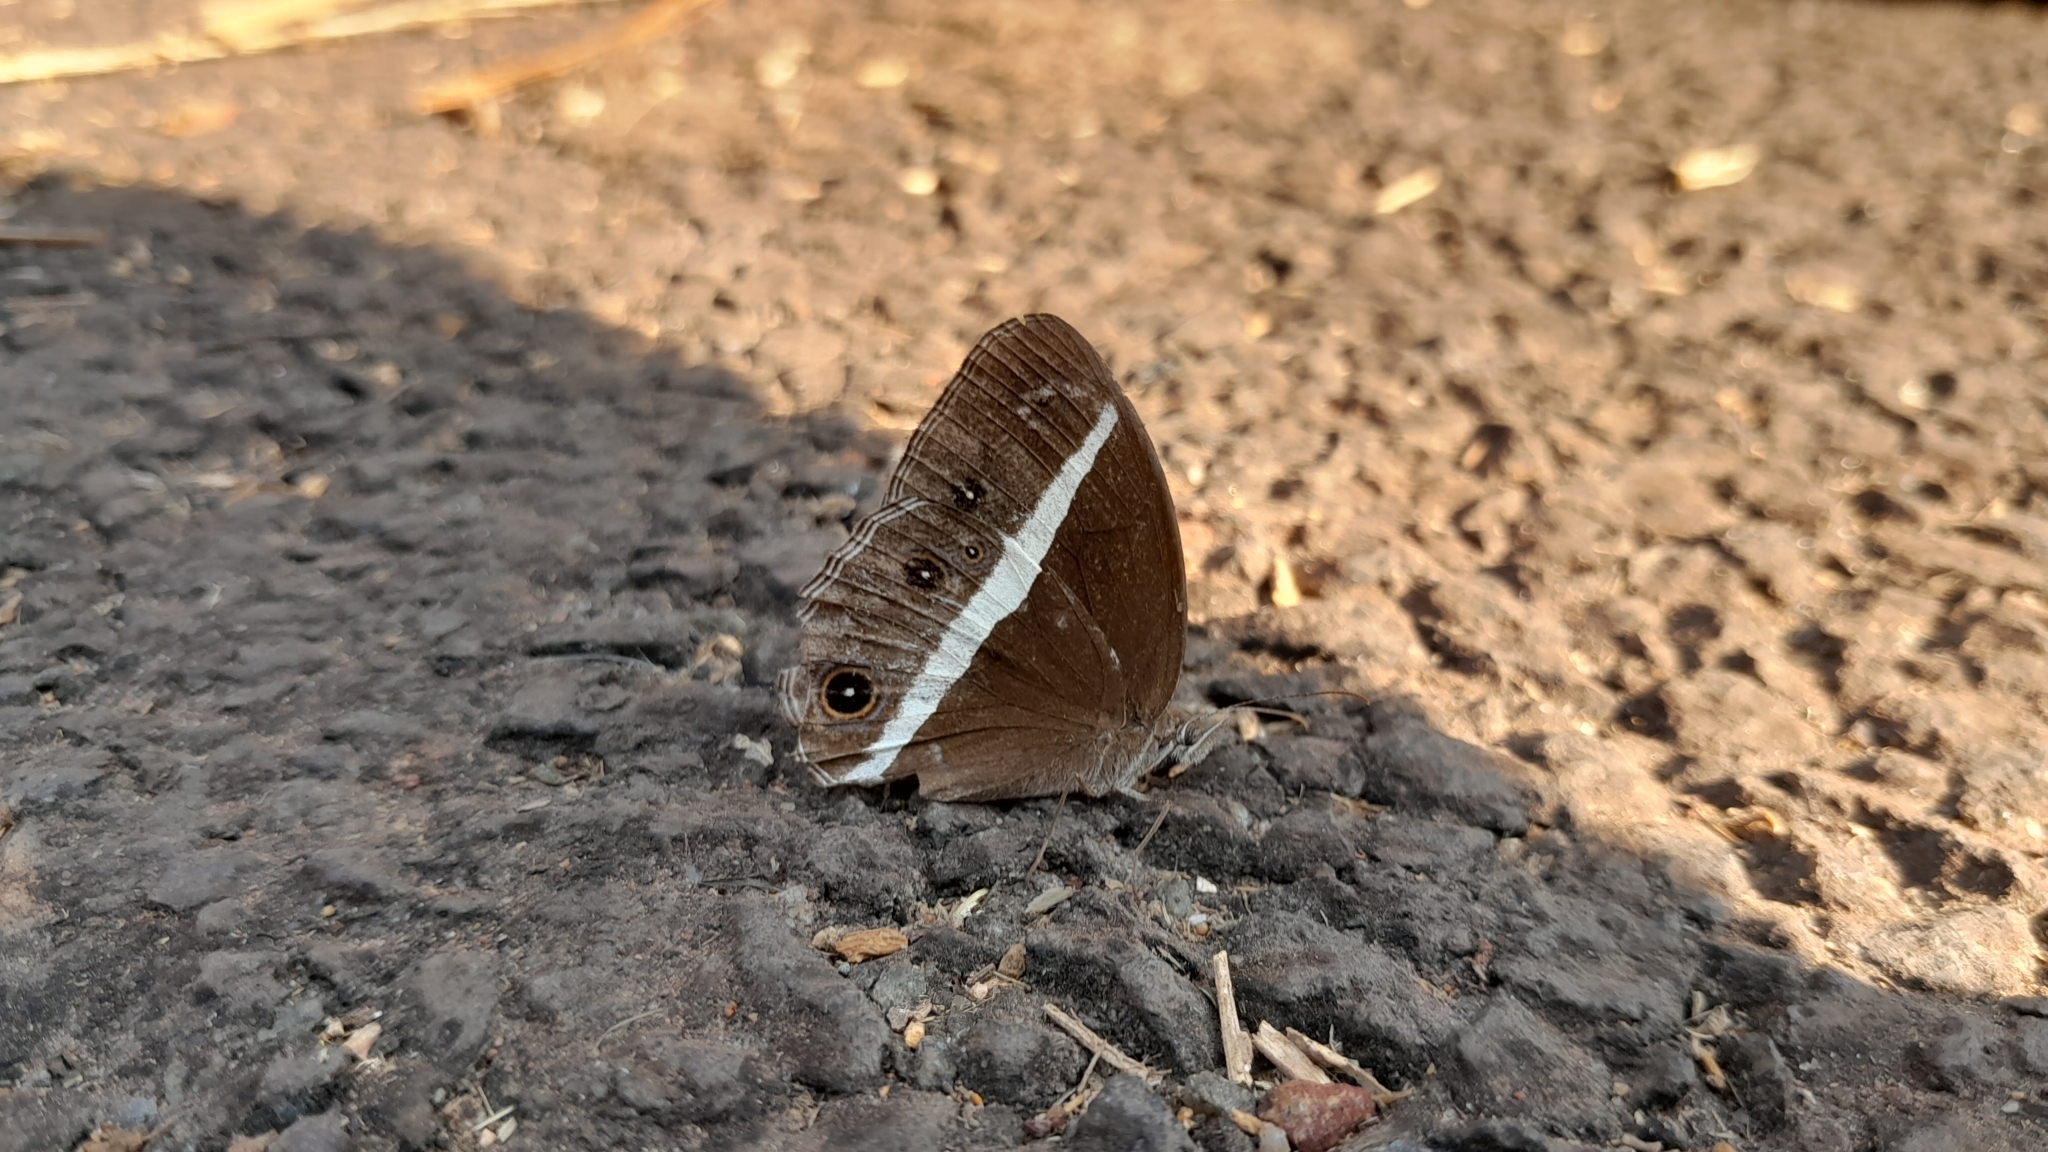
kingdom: Animalia
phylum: Arthropoda
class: Insecta
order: Lepidoptera
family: Nymphalidae
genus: Orsotriaena
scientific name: Orsotriaena medus
